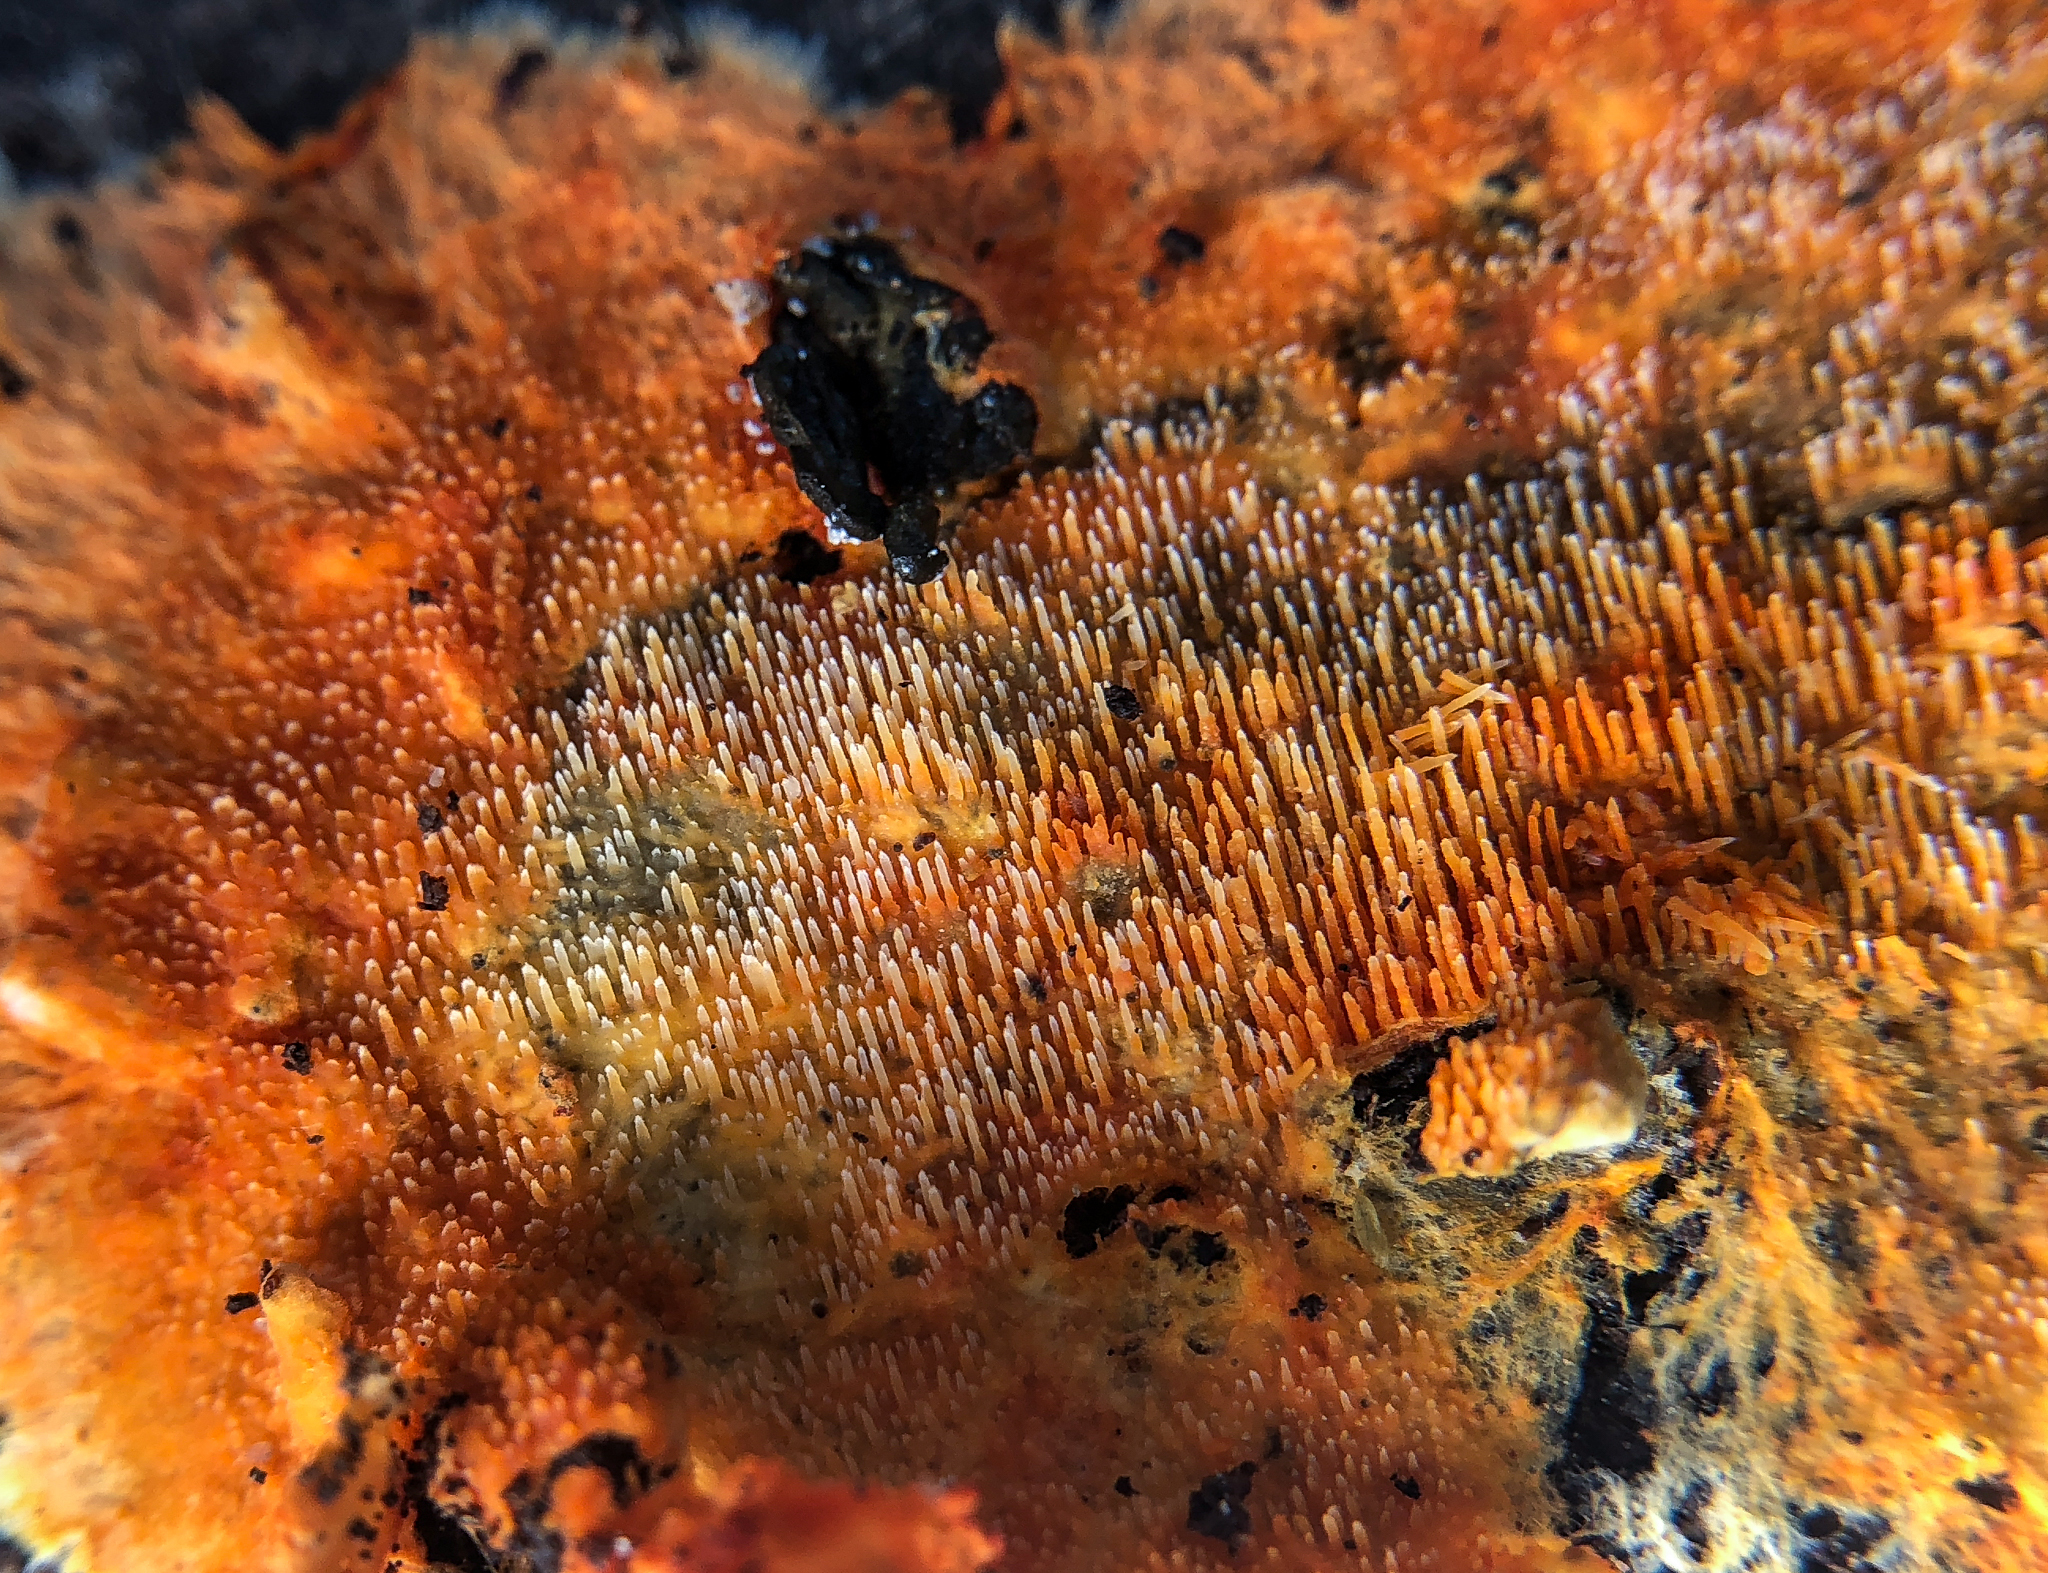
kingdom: Fungi
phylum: Basidiomycota
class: Agaricomycetes
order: Polyporales
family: Meruliaceae
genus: Hydnophlebia
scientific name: Hydnophlebia chrysorhiza
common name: Spreading yellow tooth
